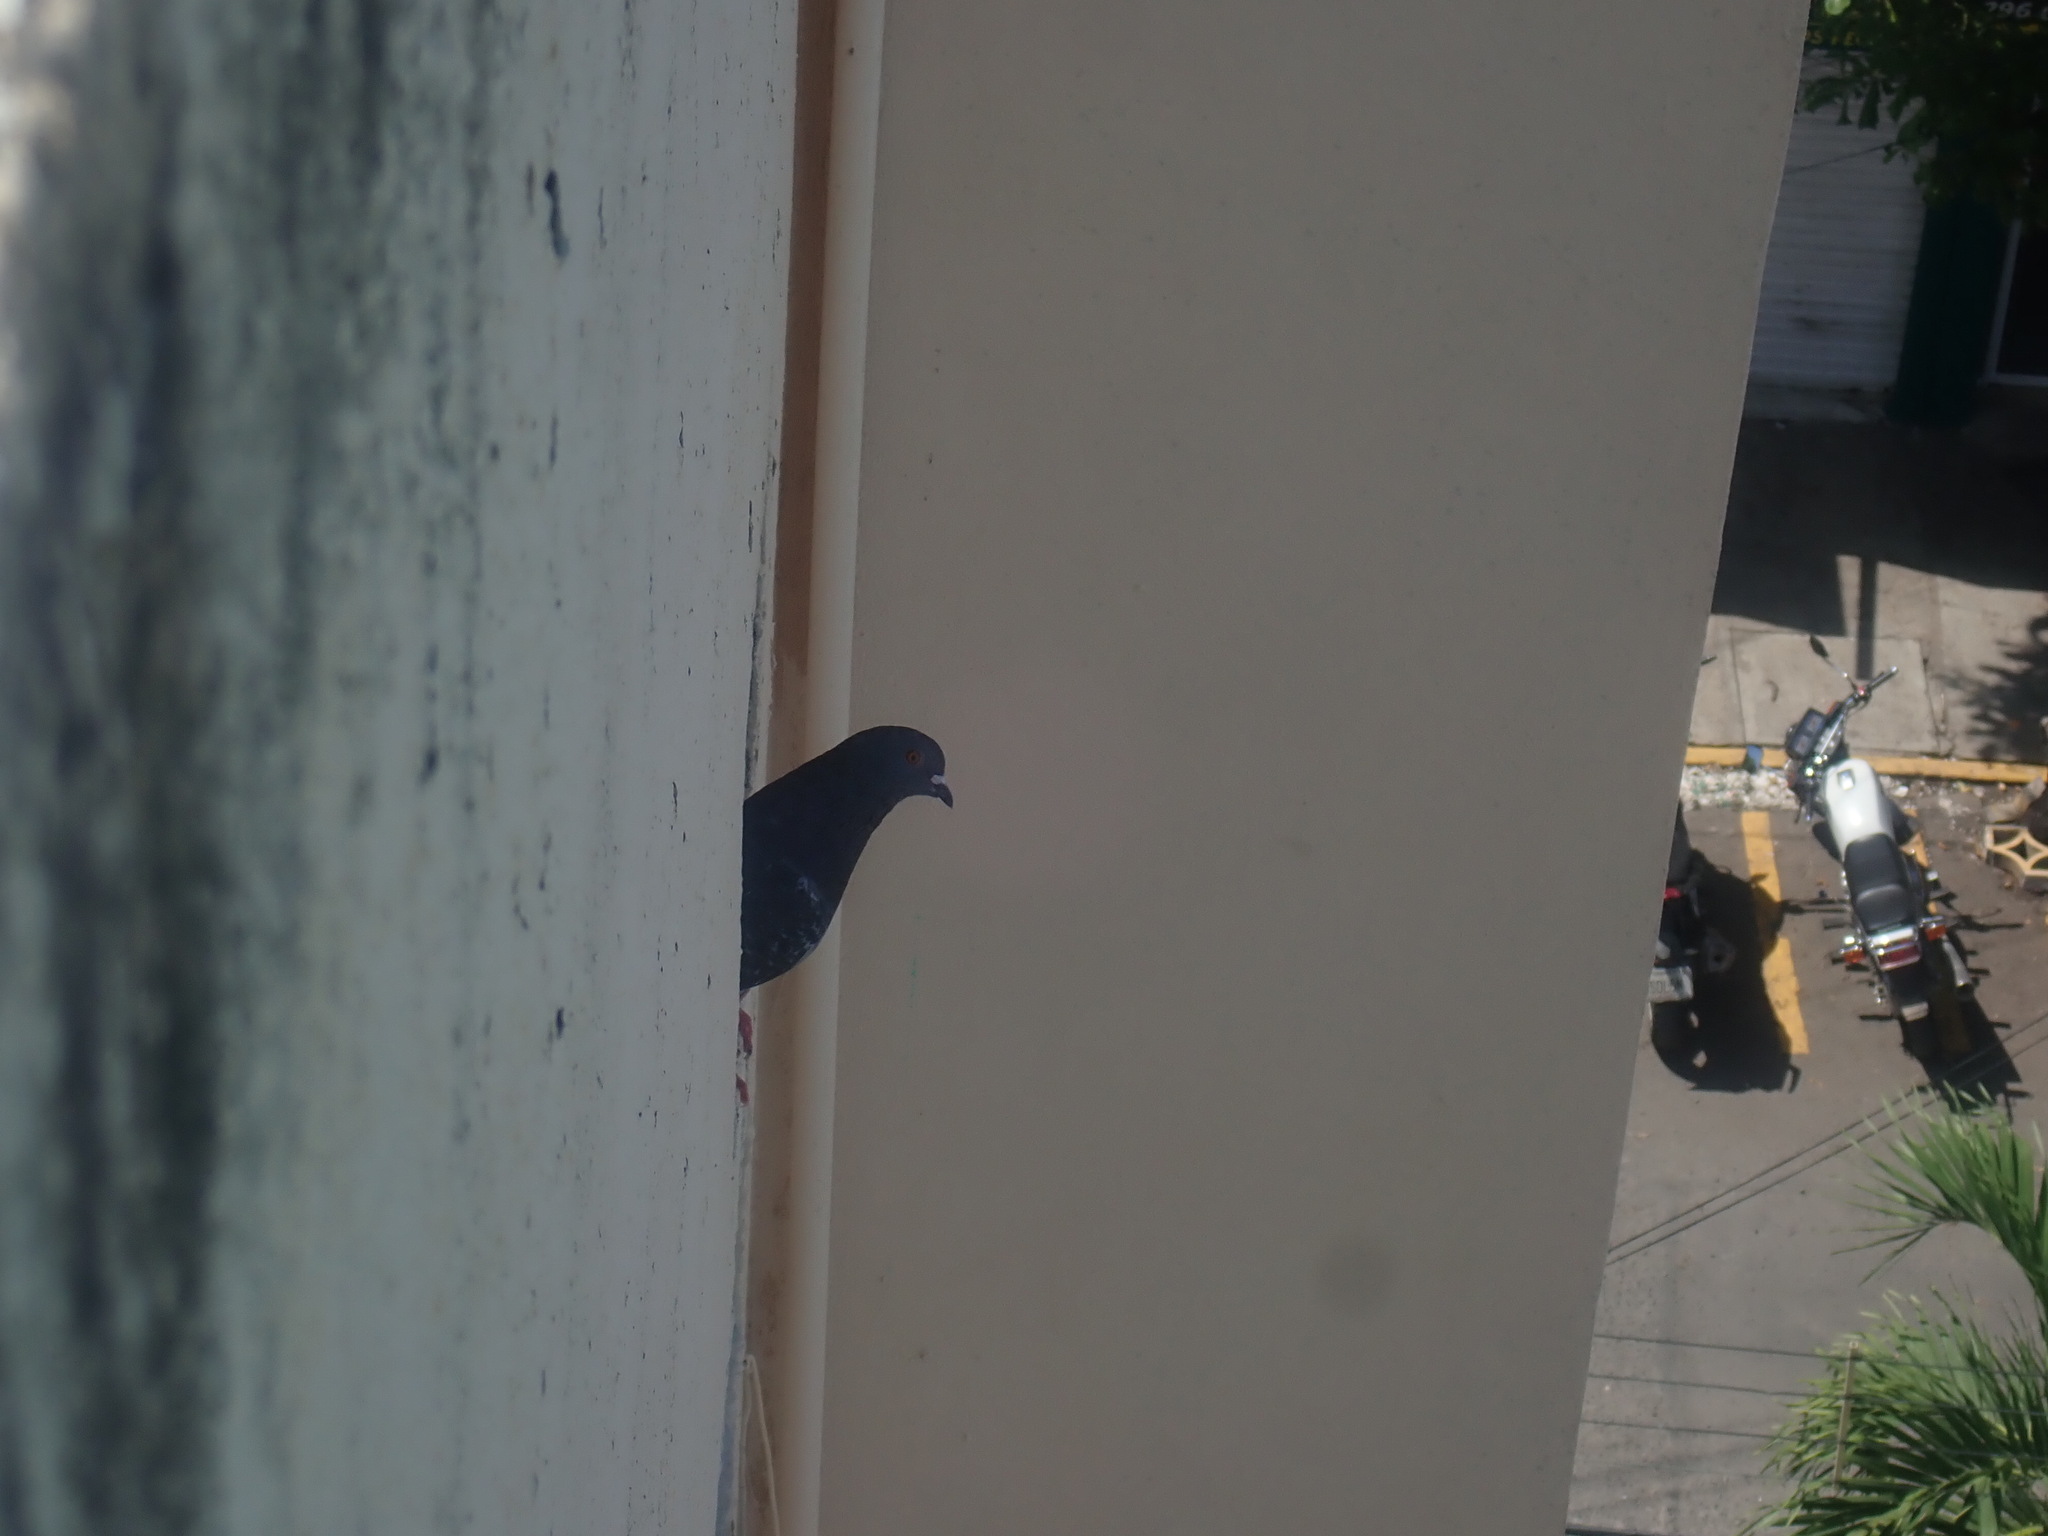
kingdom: Animalia
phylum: Chordata
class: Aves
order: Columbiformes
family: Columbidae
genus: Columba
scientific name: Columba livia
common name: Rock pigeon
